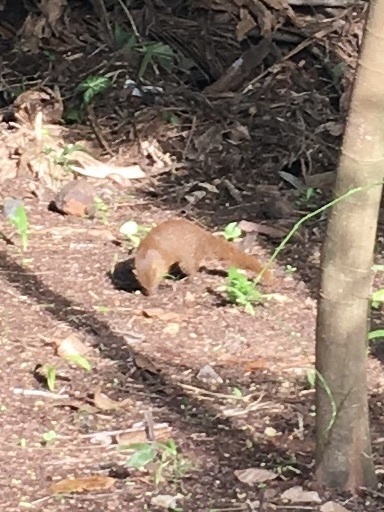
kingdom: Animalia
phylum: Chordata
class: Mammalia
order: Carnivora
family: Herpestidae
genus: Herpestes
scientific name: Herpestes edwardsi
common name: Indian gray mongoose
